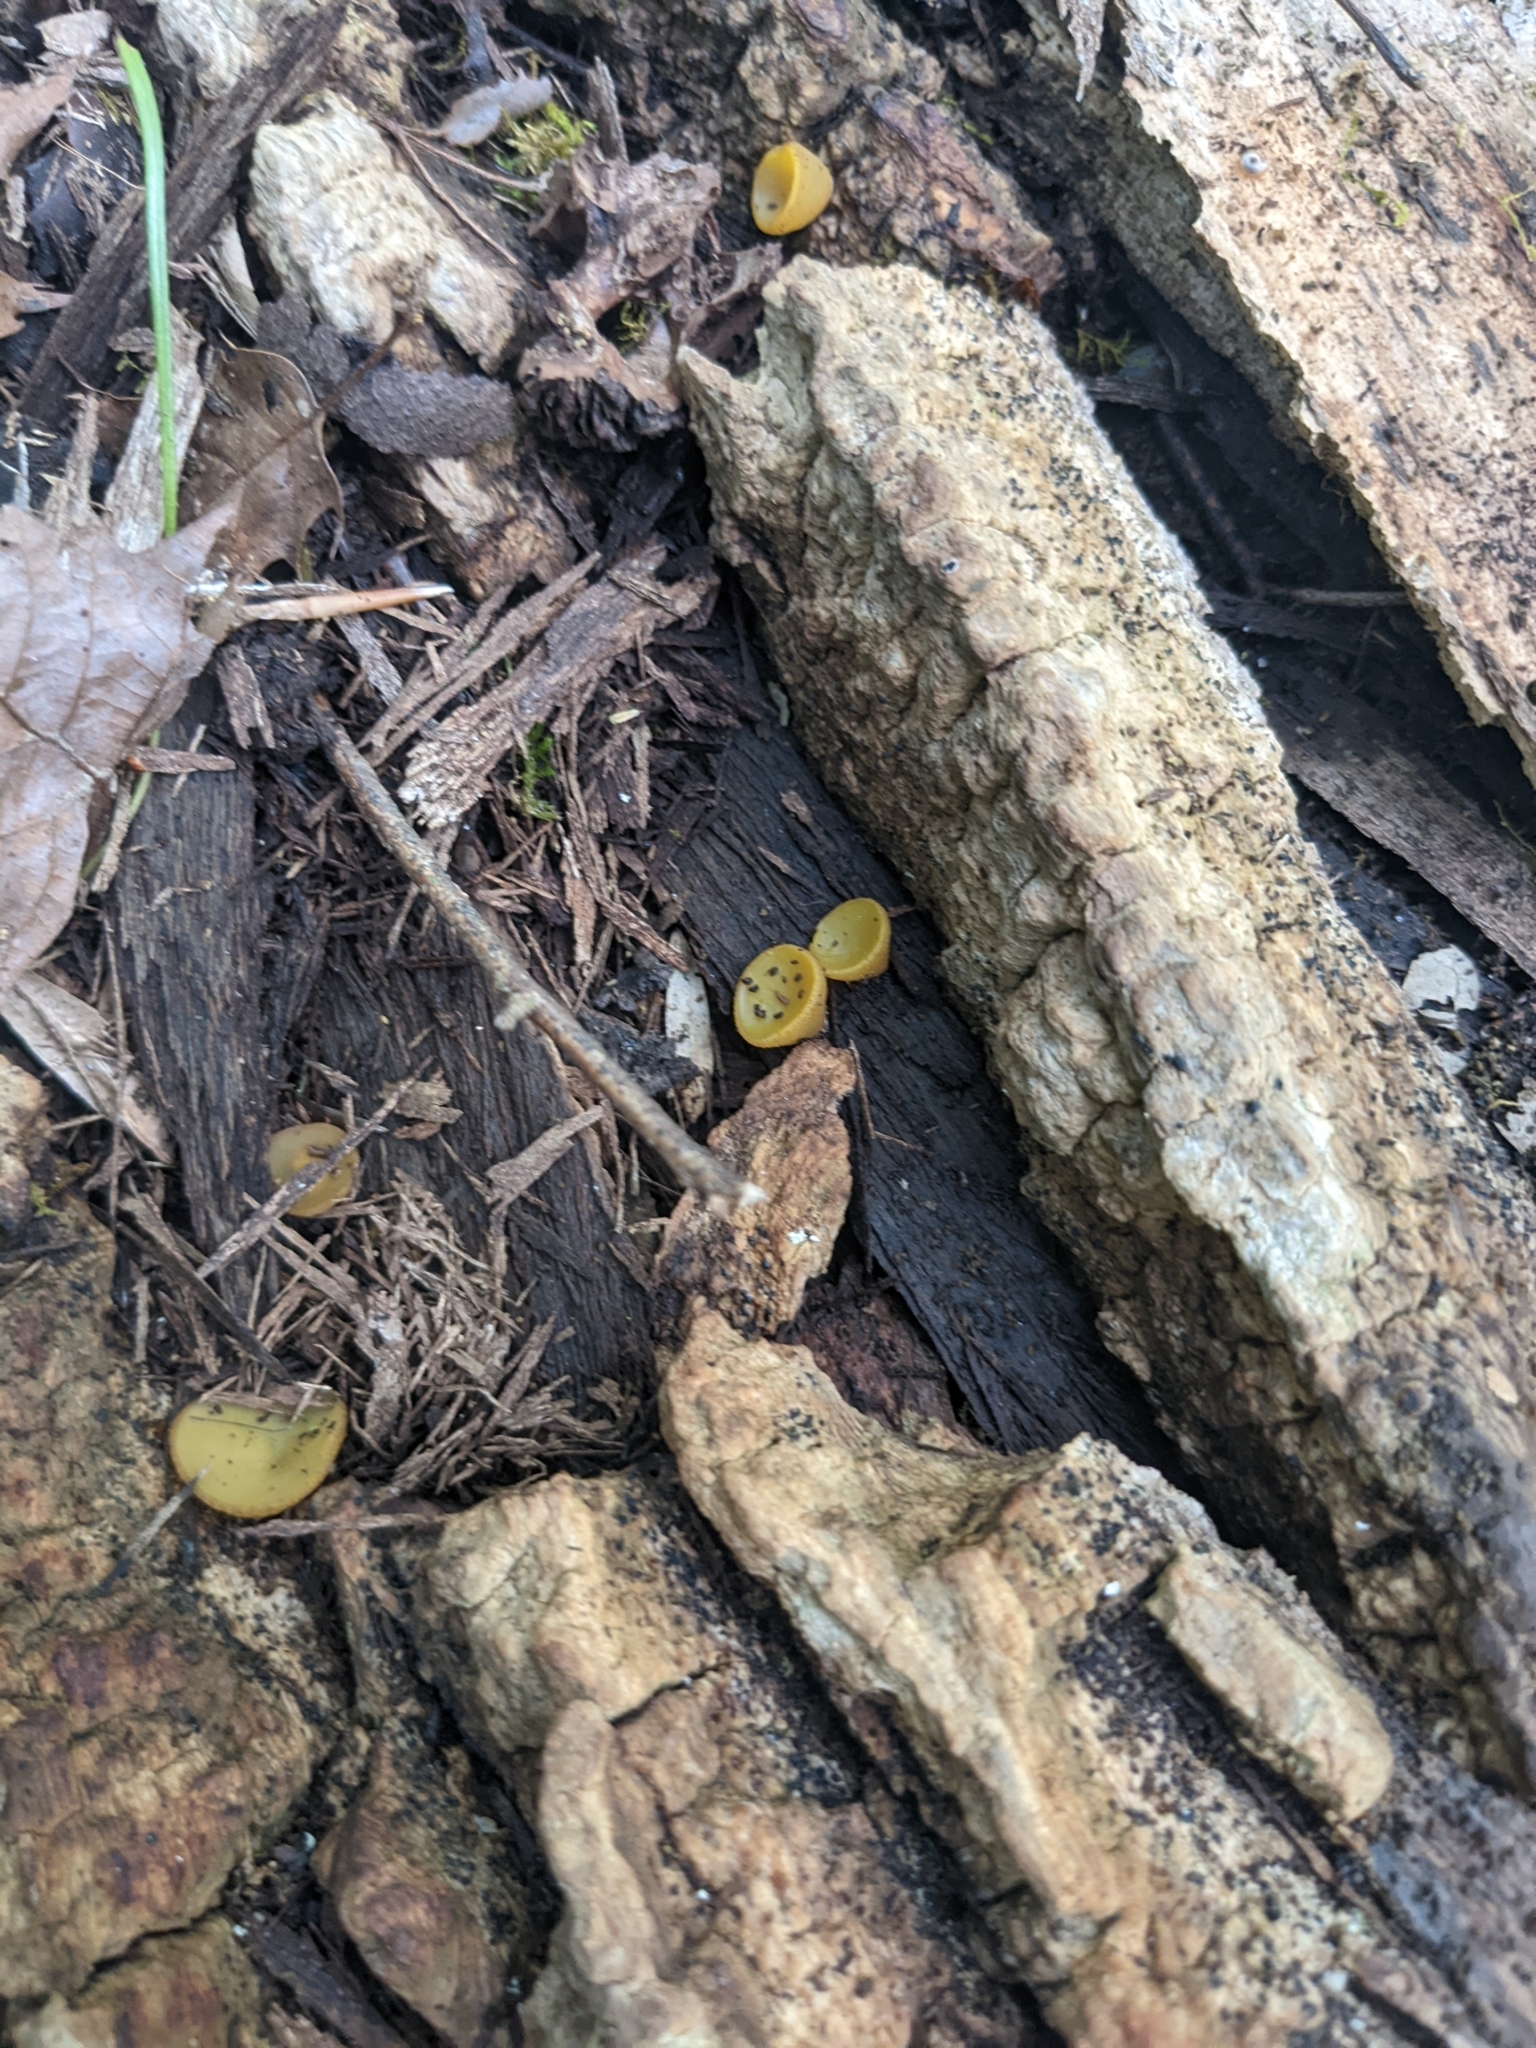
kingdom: Fungi
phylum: Ascomycota
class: Pezizomycetes
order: Pezizales
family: Pezizaceae
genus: Elaiopezia
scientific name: Elaiopezia waltersii
